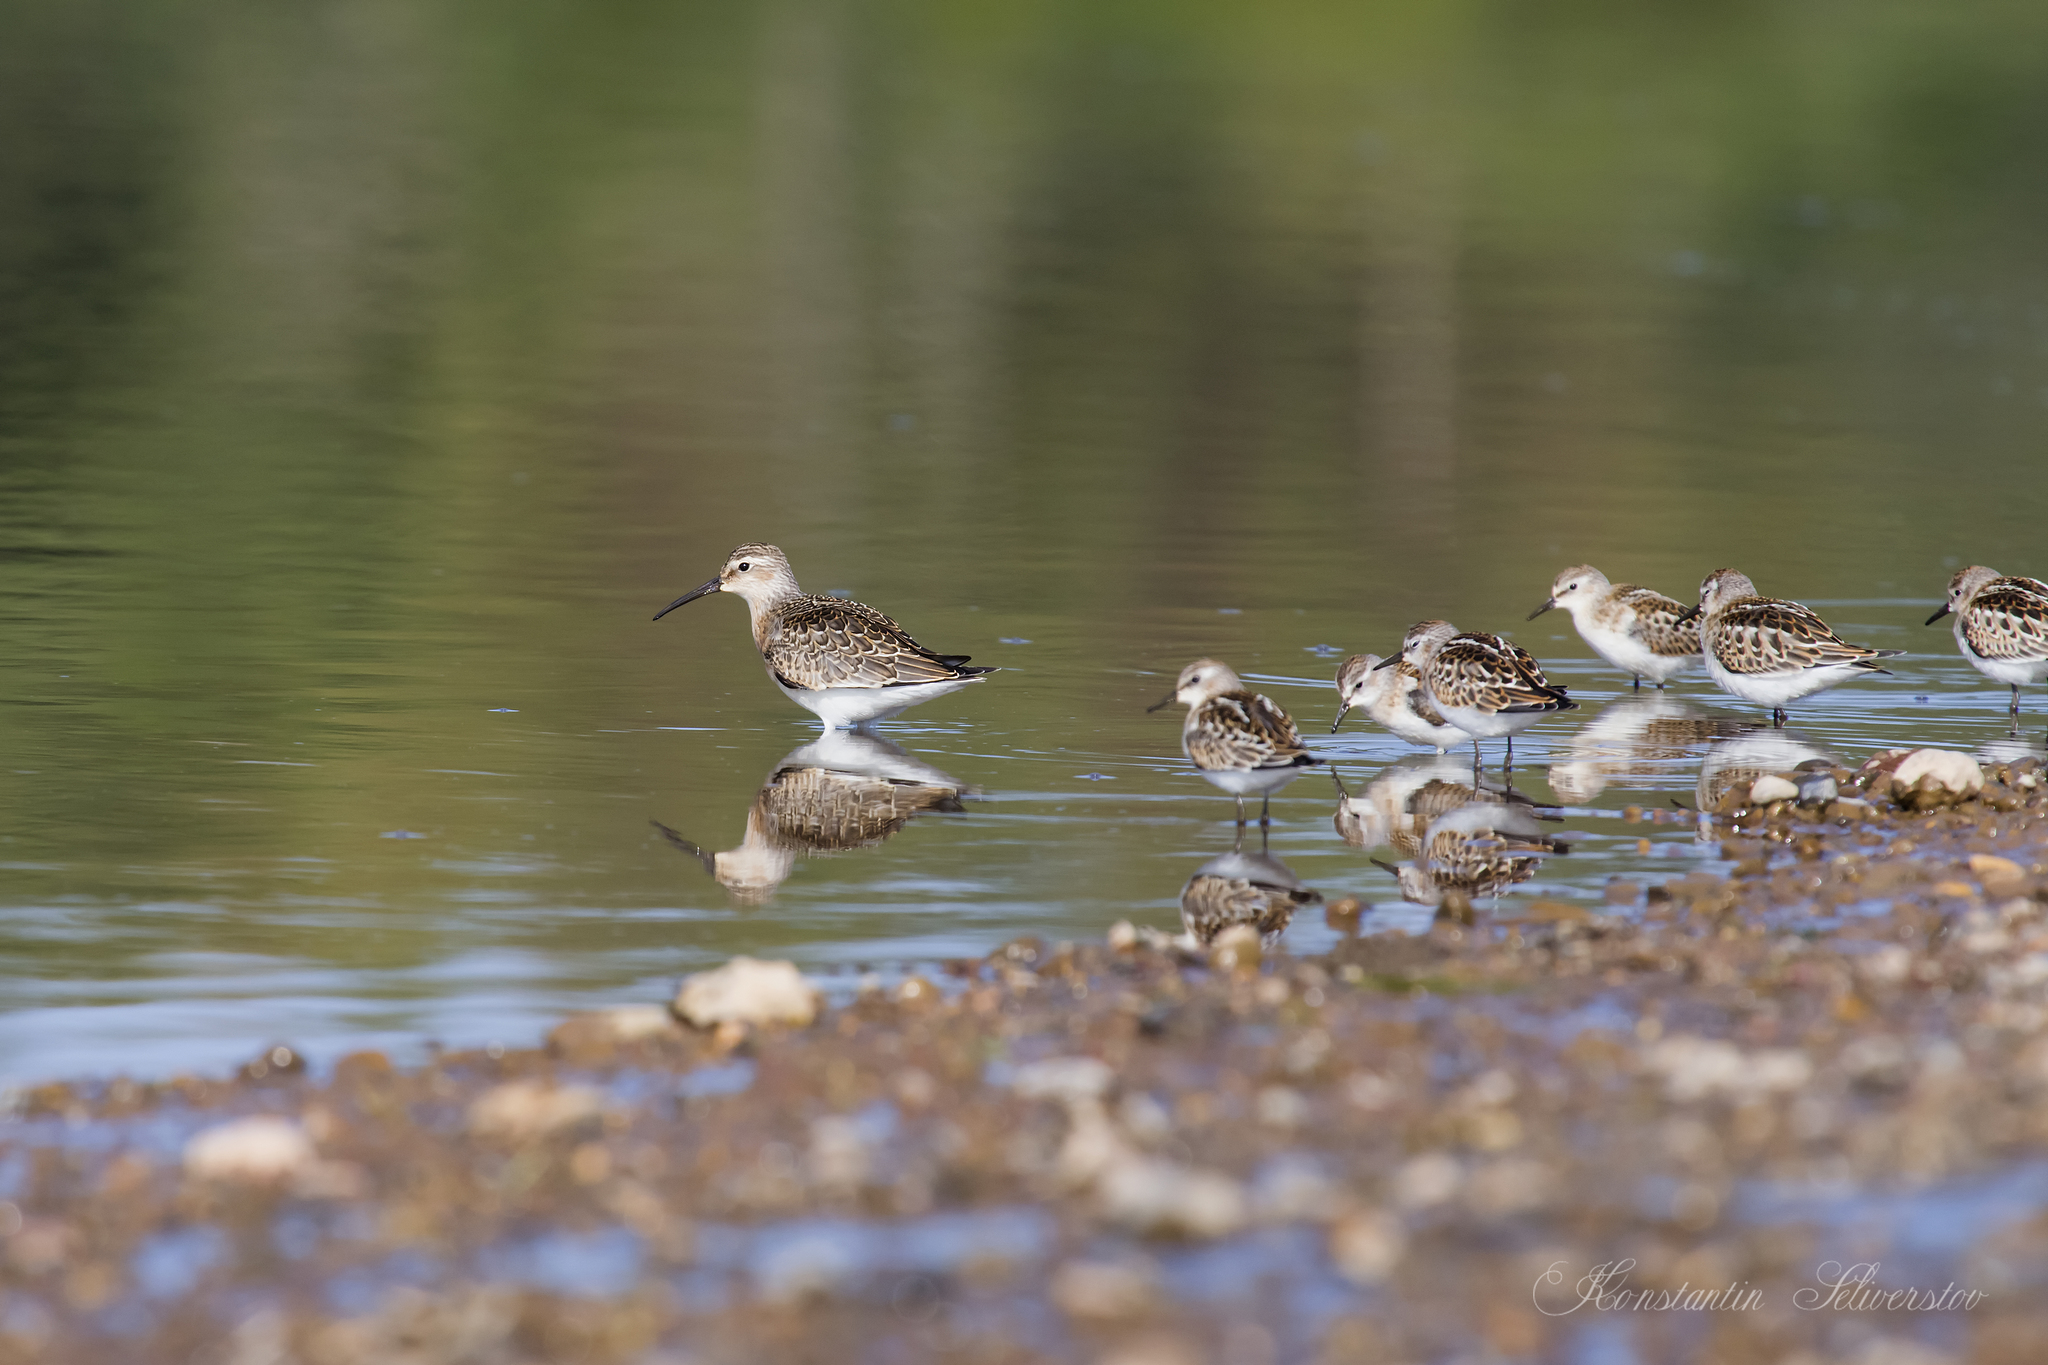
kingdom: Animalia
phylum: Chordata
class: Aves
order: Charadriiformes
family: Scolopacidae
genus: Calidris
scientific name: Calidris minuta
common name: Little stint
